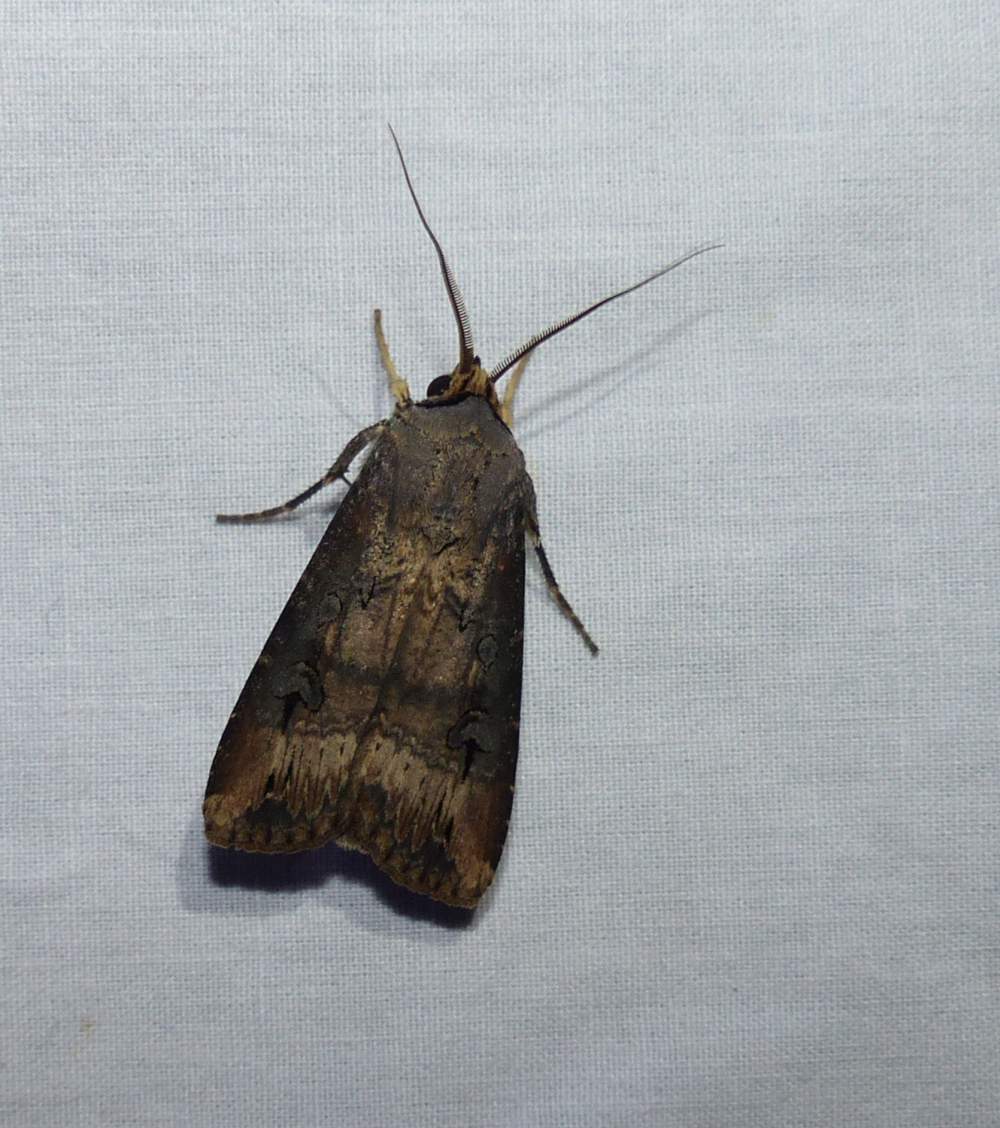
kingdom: Animalia
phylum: Arthropoda
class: Insecta
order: Lepidoptera
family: Noctuidae
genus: Agrotis
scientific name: Agrotis ipsilon
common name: Dark sword-grass
